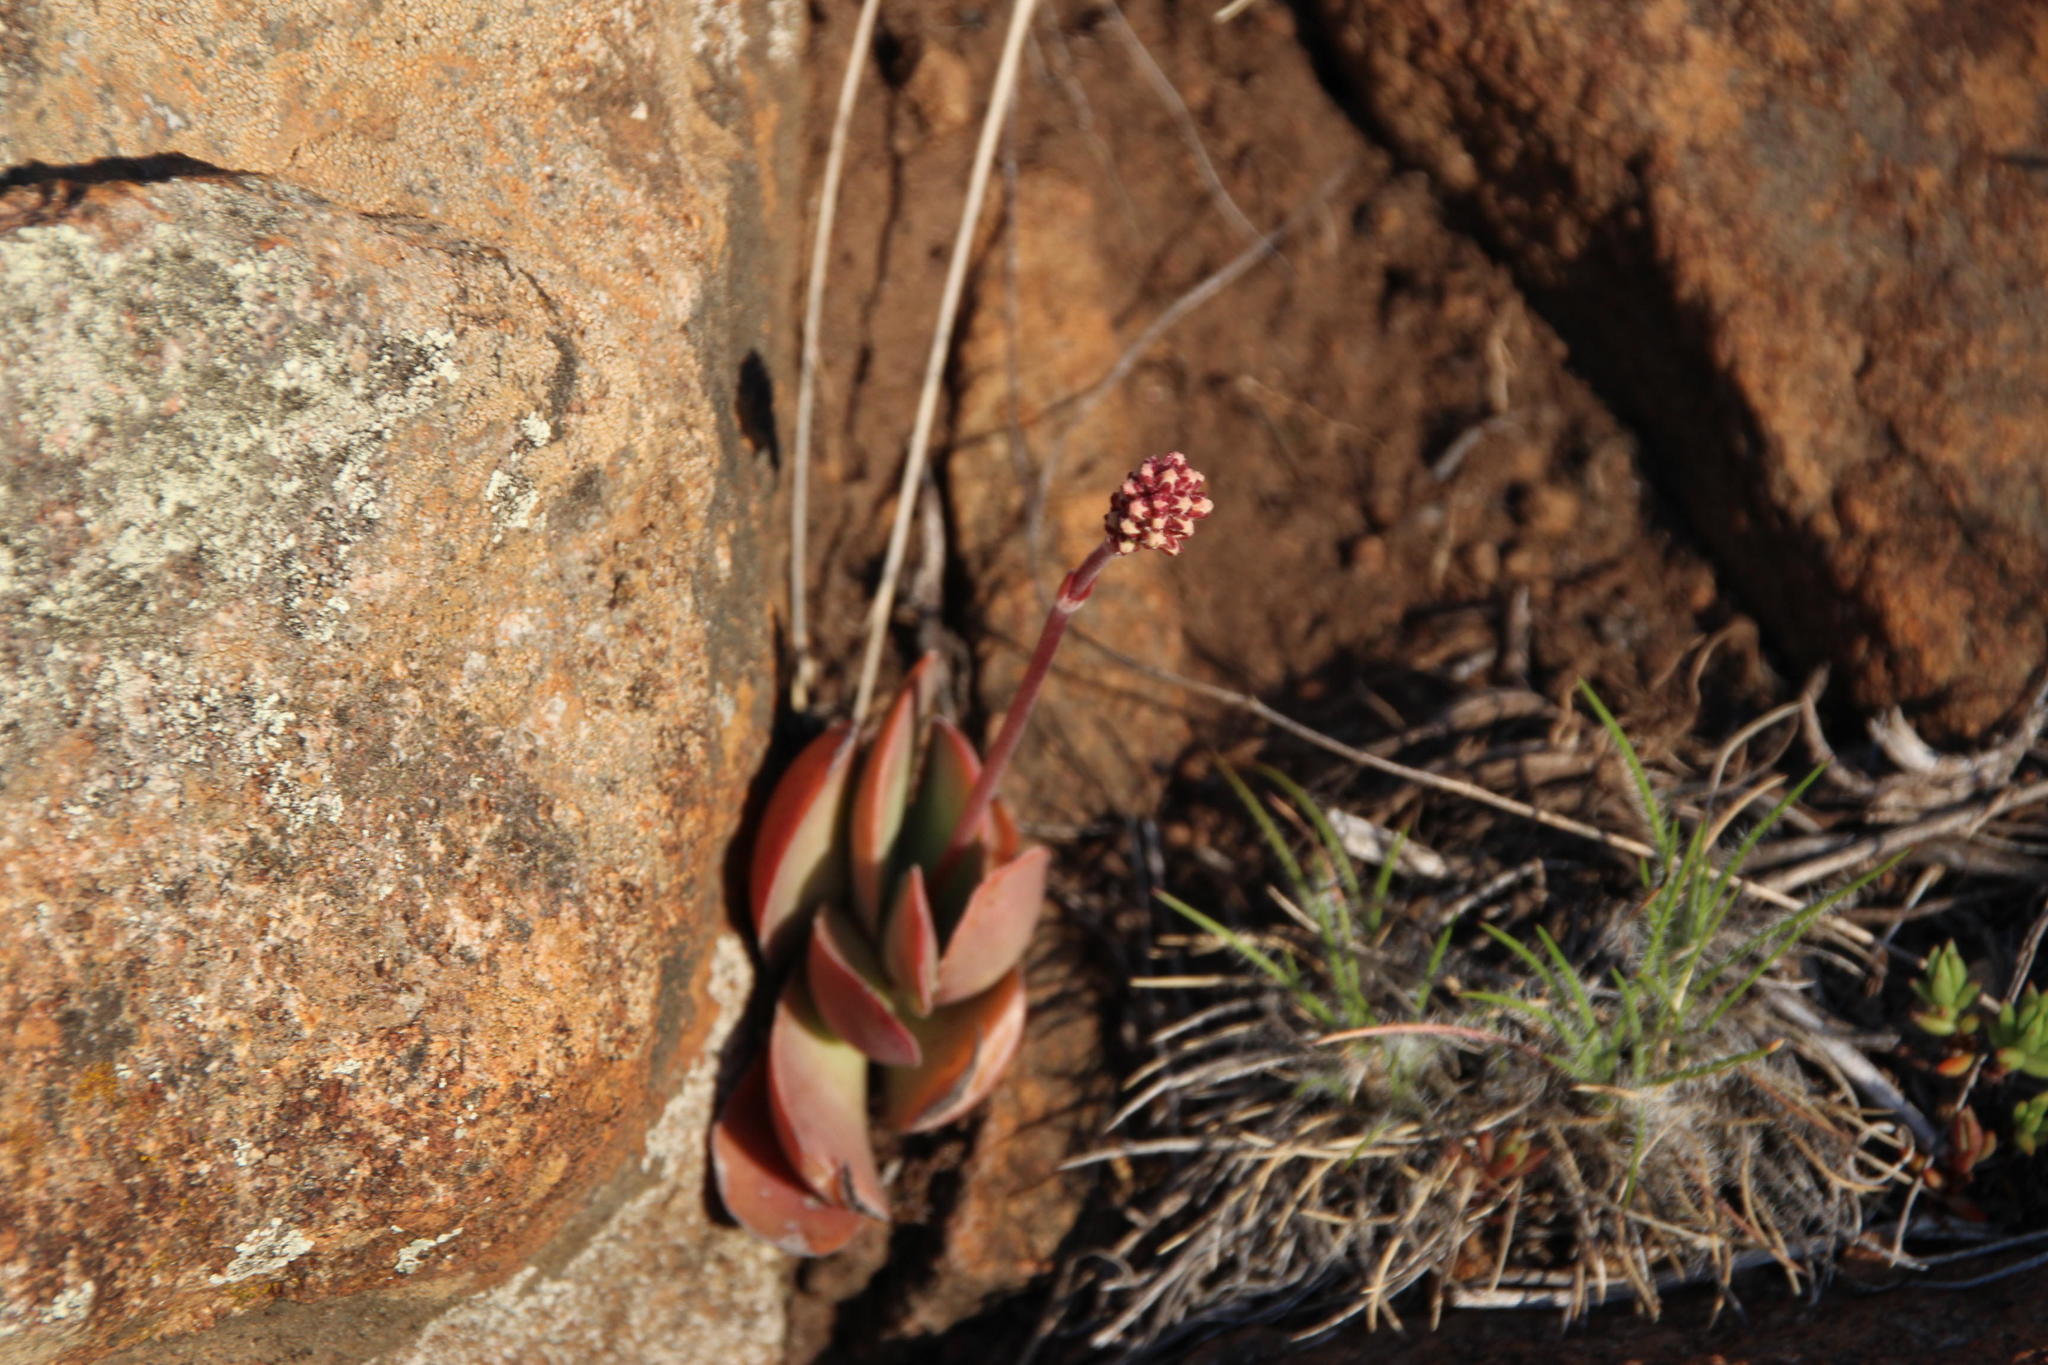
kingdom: Plantae
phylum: Tracheophyta
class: Magnoliopsida
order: Saxifragales
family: Crassulaceae
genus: Crassula
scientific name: Crassula pubescens
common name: Jersey pigmyweed
